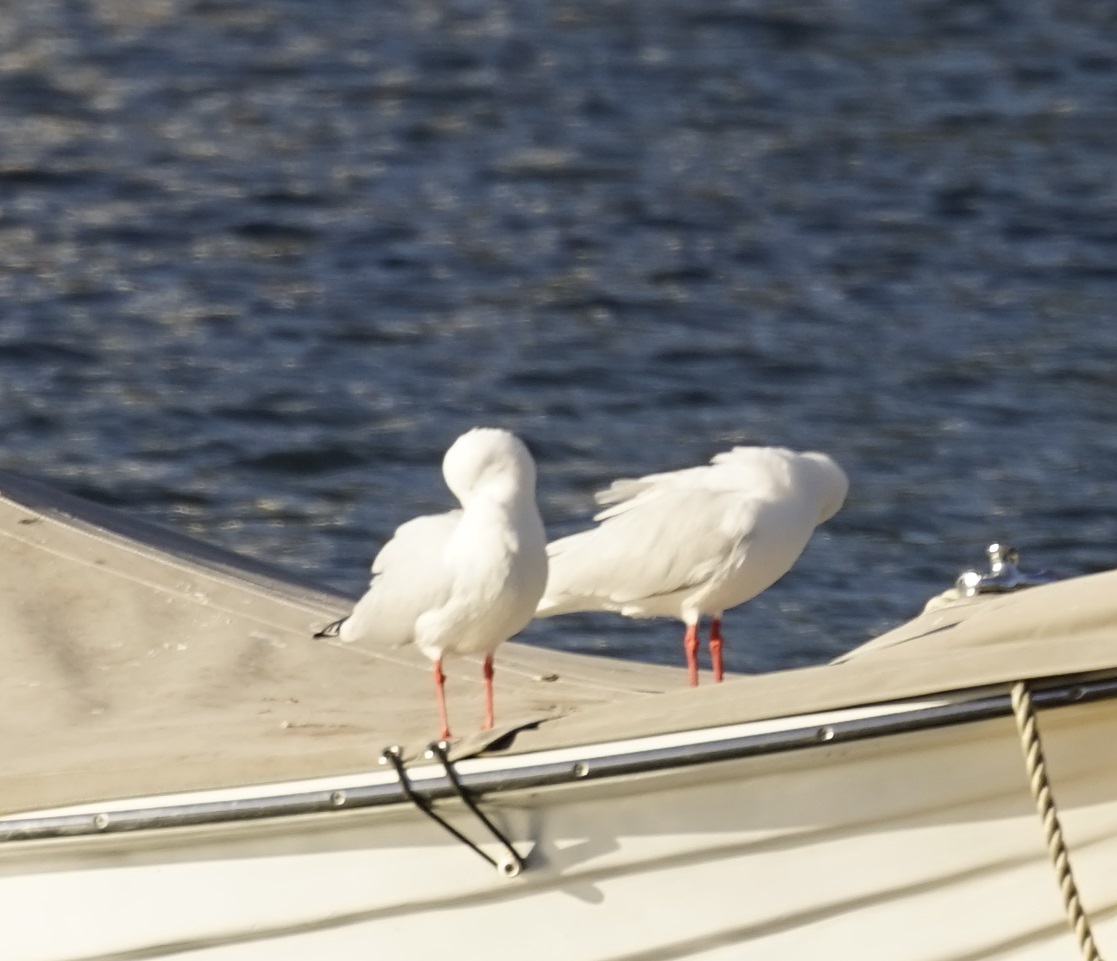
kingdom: Animalia
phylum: Chordata
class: Aves
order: Charadriiformes
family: Laridae
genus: Chroicocephalus
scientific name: Chroicocephalus novaehollandiae
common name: Silver gull
